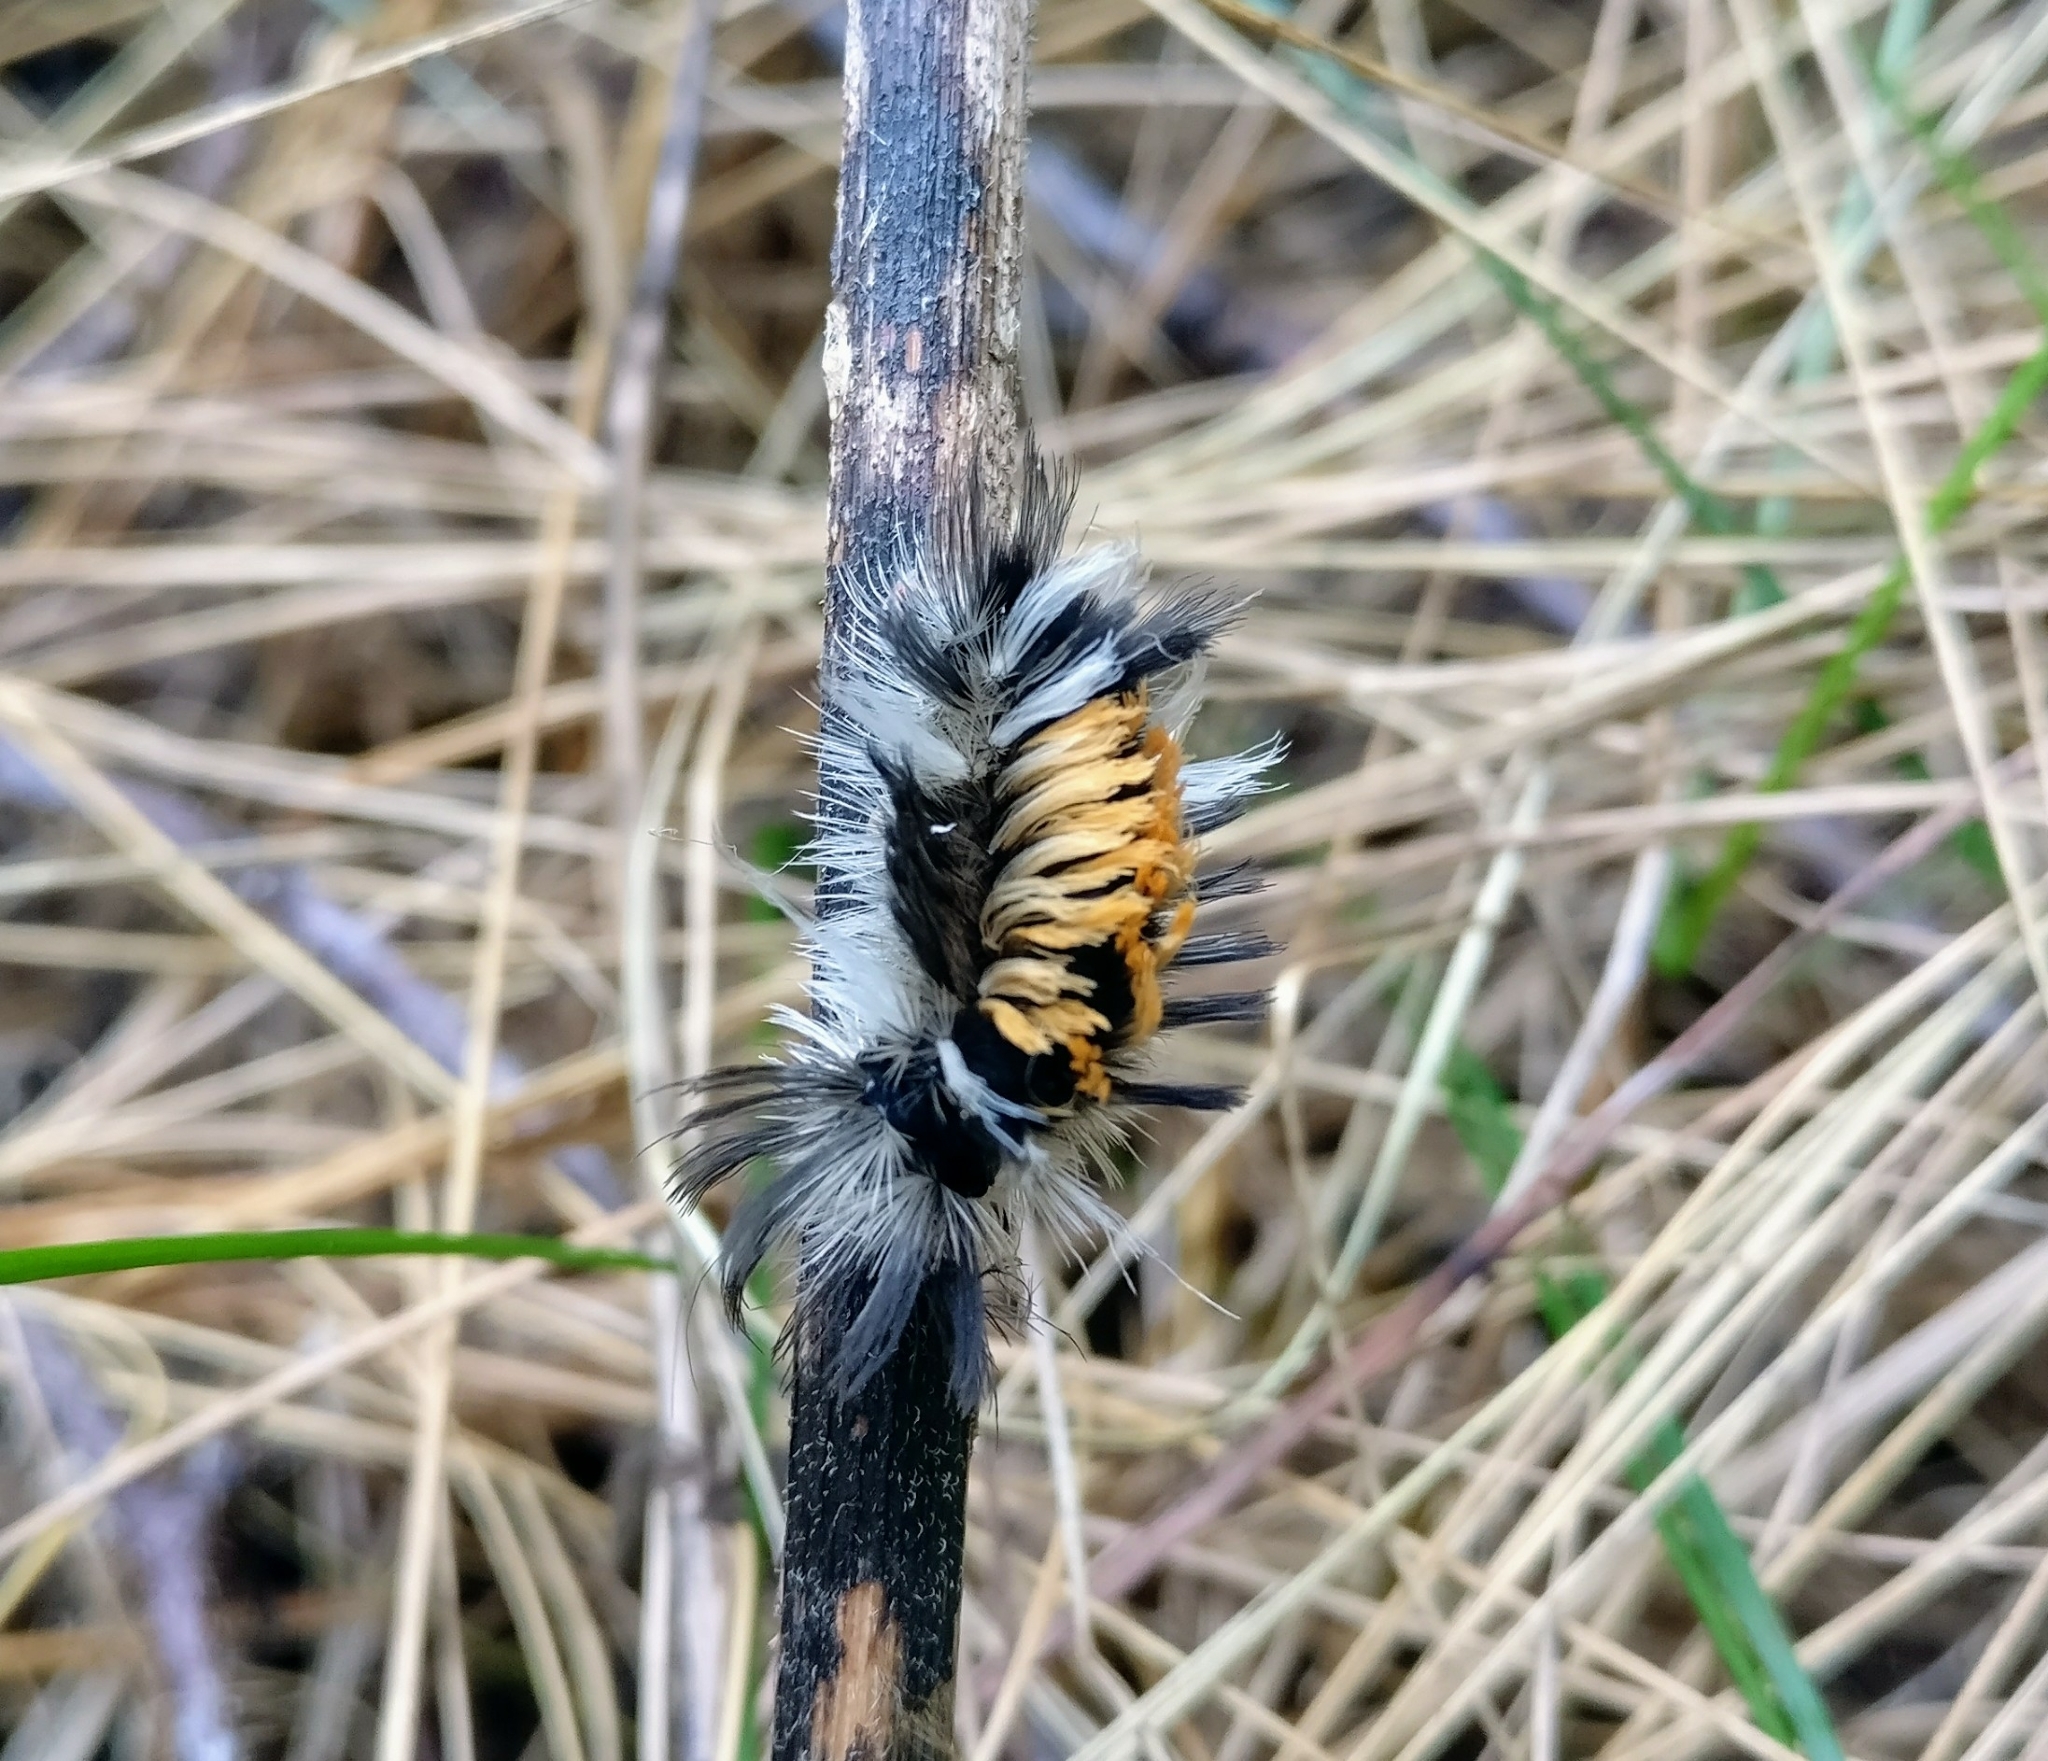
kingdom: Animalia
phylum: Arthropoda
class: Insecta
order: Lepidoptera
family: Erebidae
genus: Euchaetes
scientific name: Euchaetes egle
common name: Milkweed tussock moth
